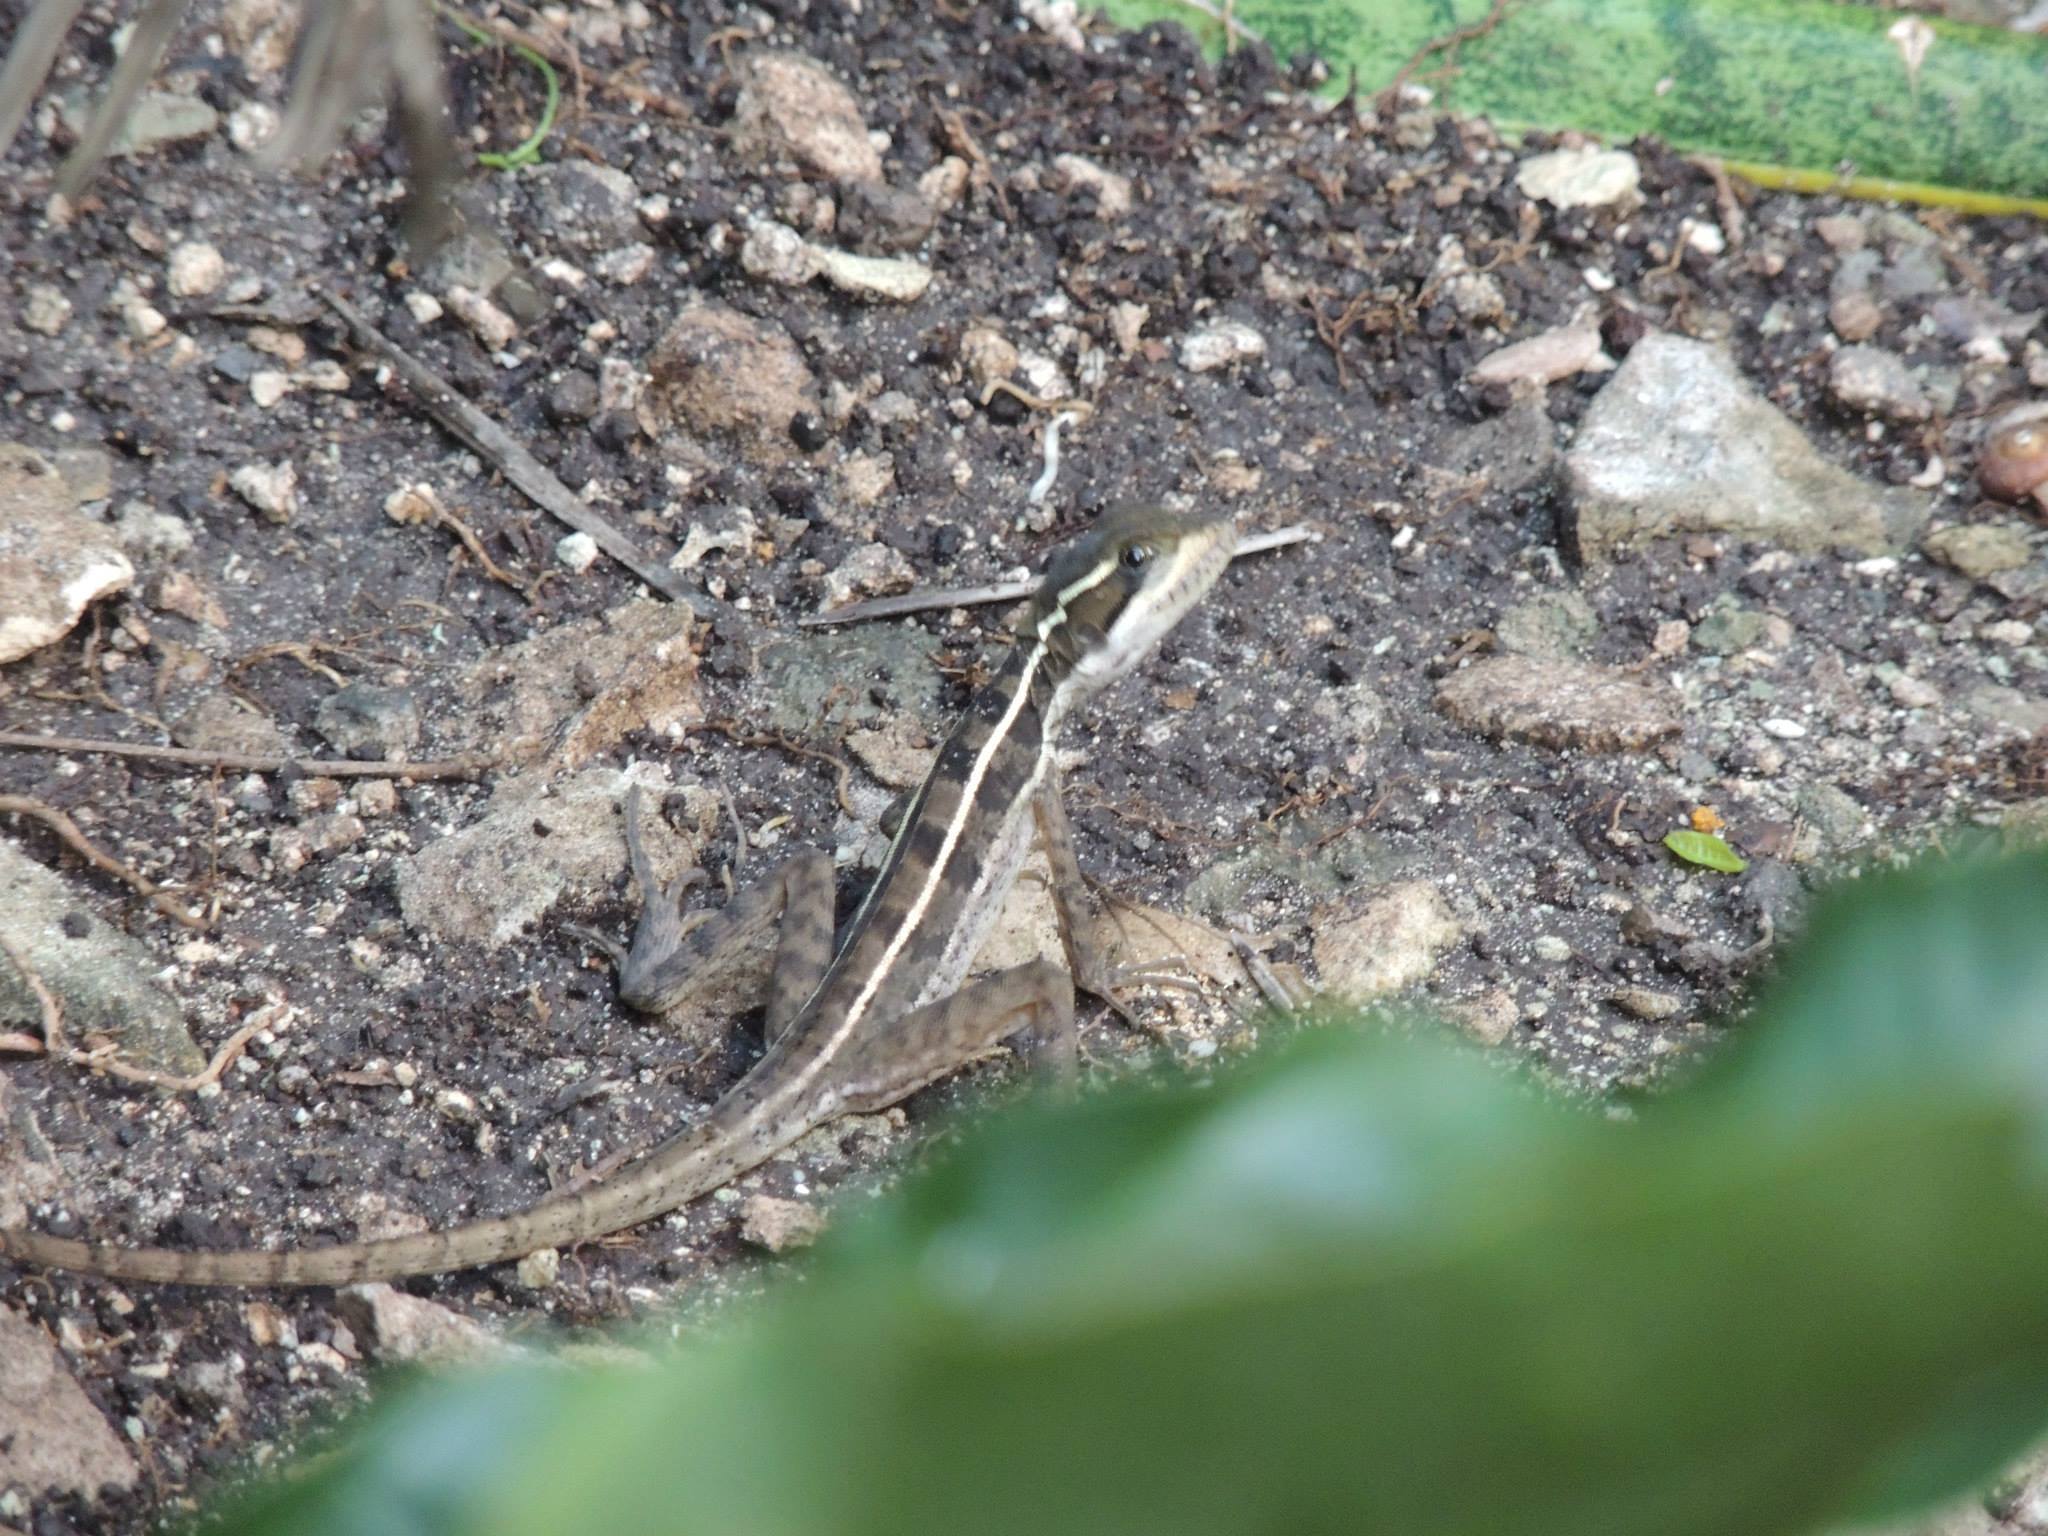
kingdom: Animalia
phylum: Chordata
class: Squamata
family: Corytophanidae
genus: Basiliscus
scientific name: Basiliscus vittatus
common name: Brown basilisk
